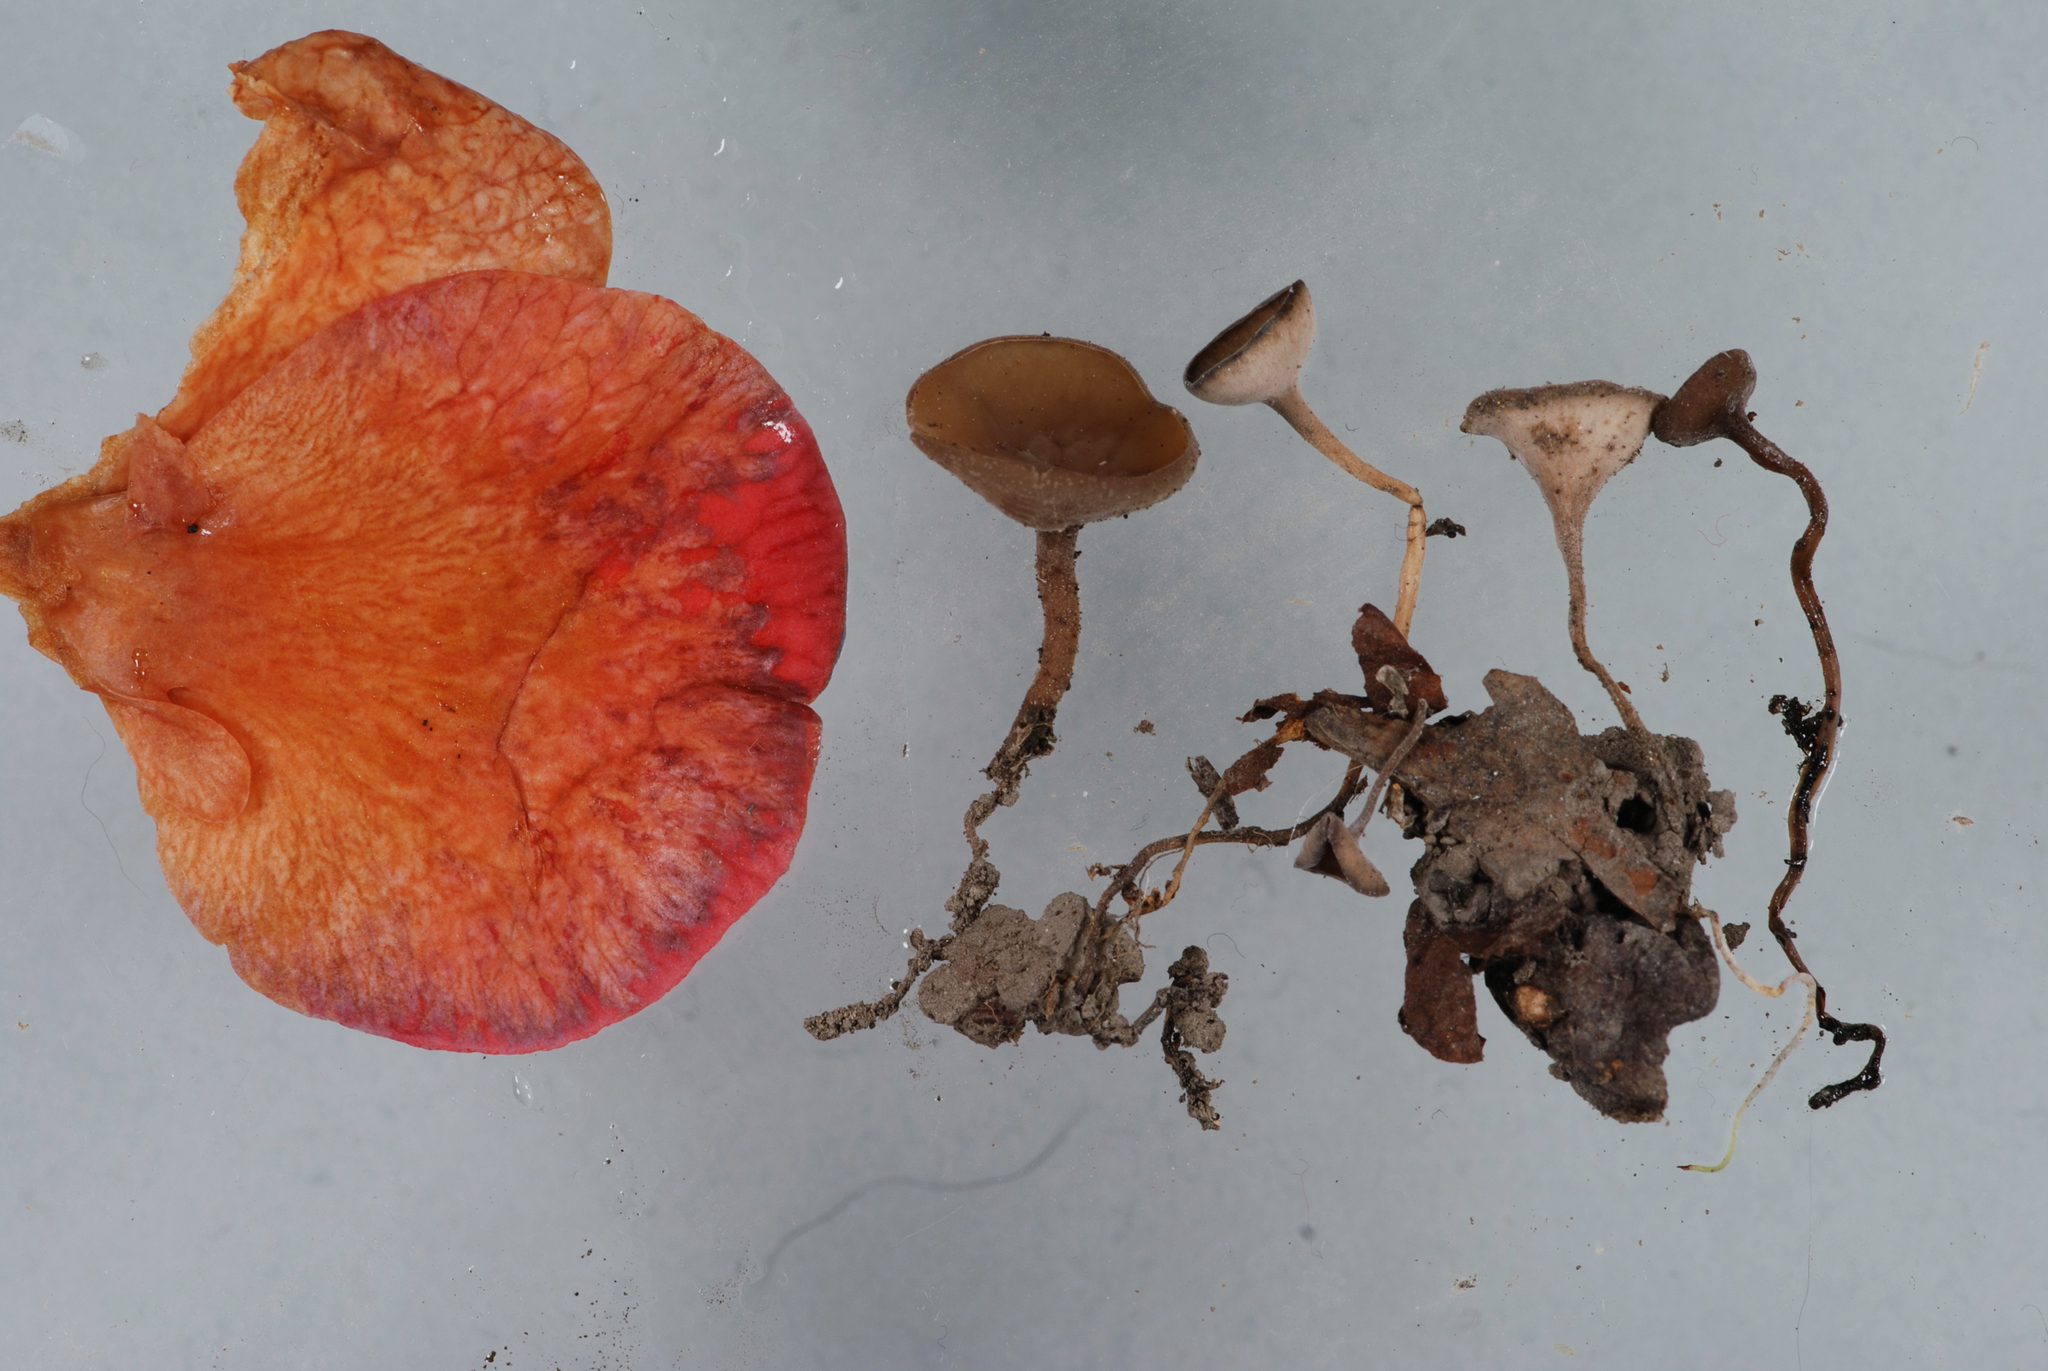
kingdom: Fungi
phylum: Ascomycota
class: Leotiomycetes
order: Helotiales
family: Sclerotiniaceae
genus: Ciborinia
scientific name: Ciborinia camelliae
